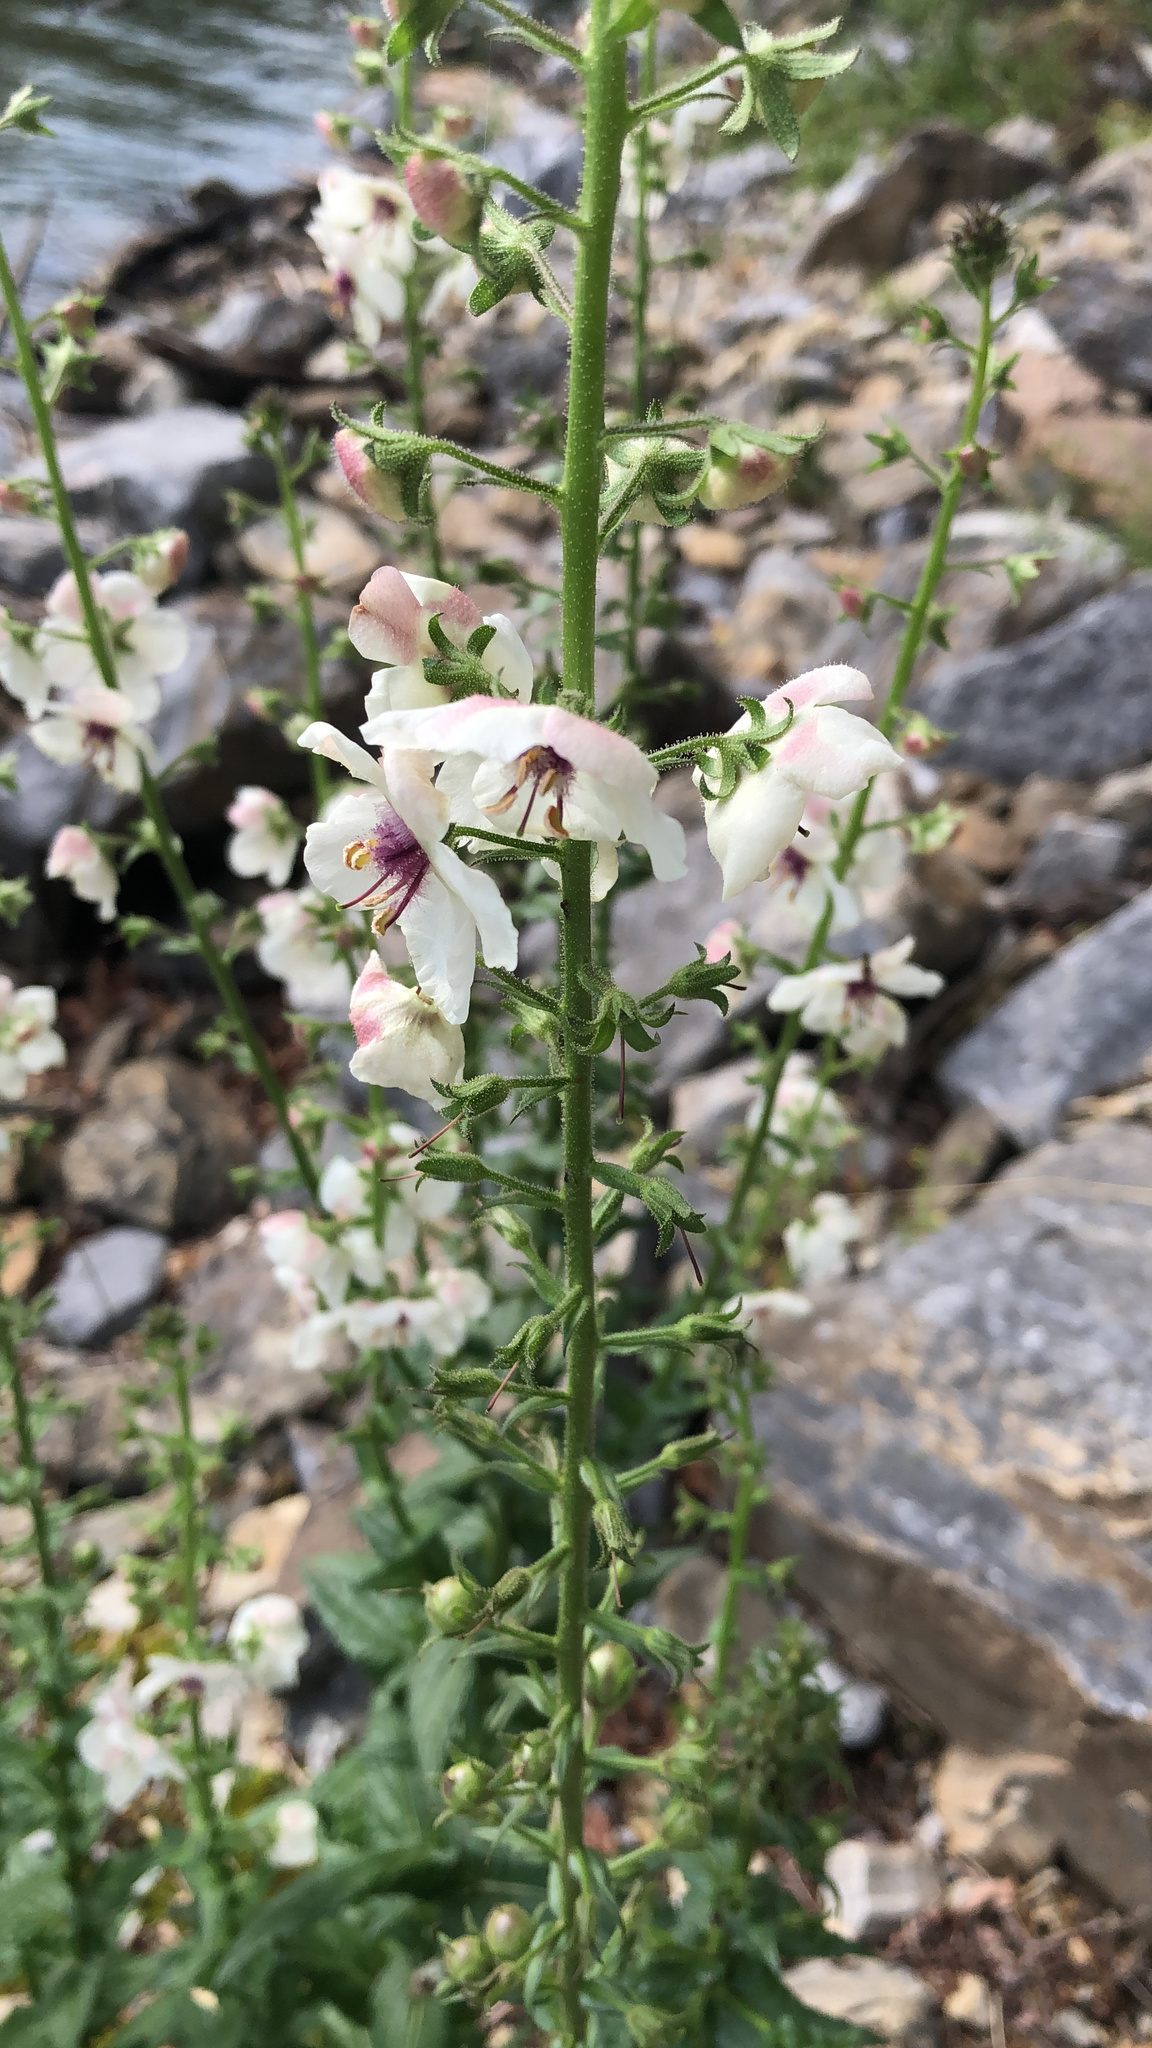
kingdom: Plantae
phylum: Tracheophyta
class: Magnoliopsida
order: Lamiales
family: Scrophulariaceae
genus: Verbascum
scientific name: Verbascum blattaria
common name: Moth mullein
